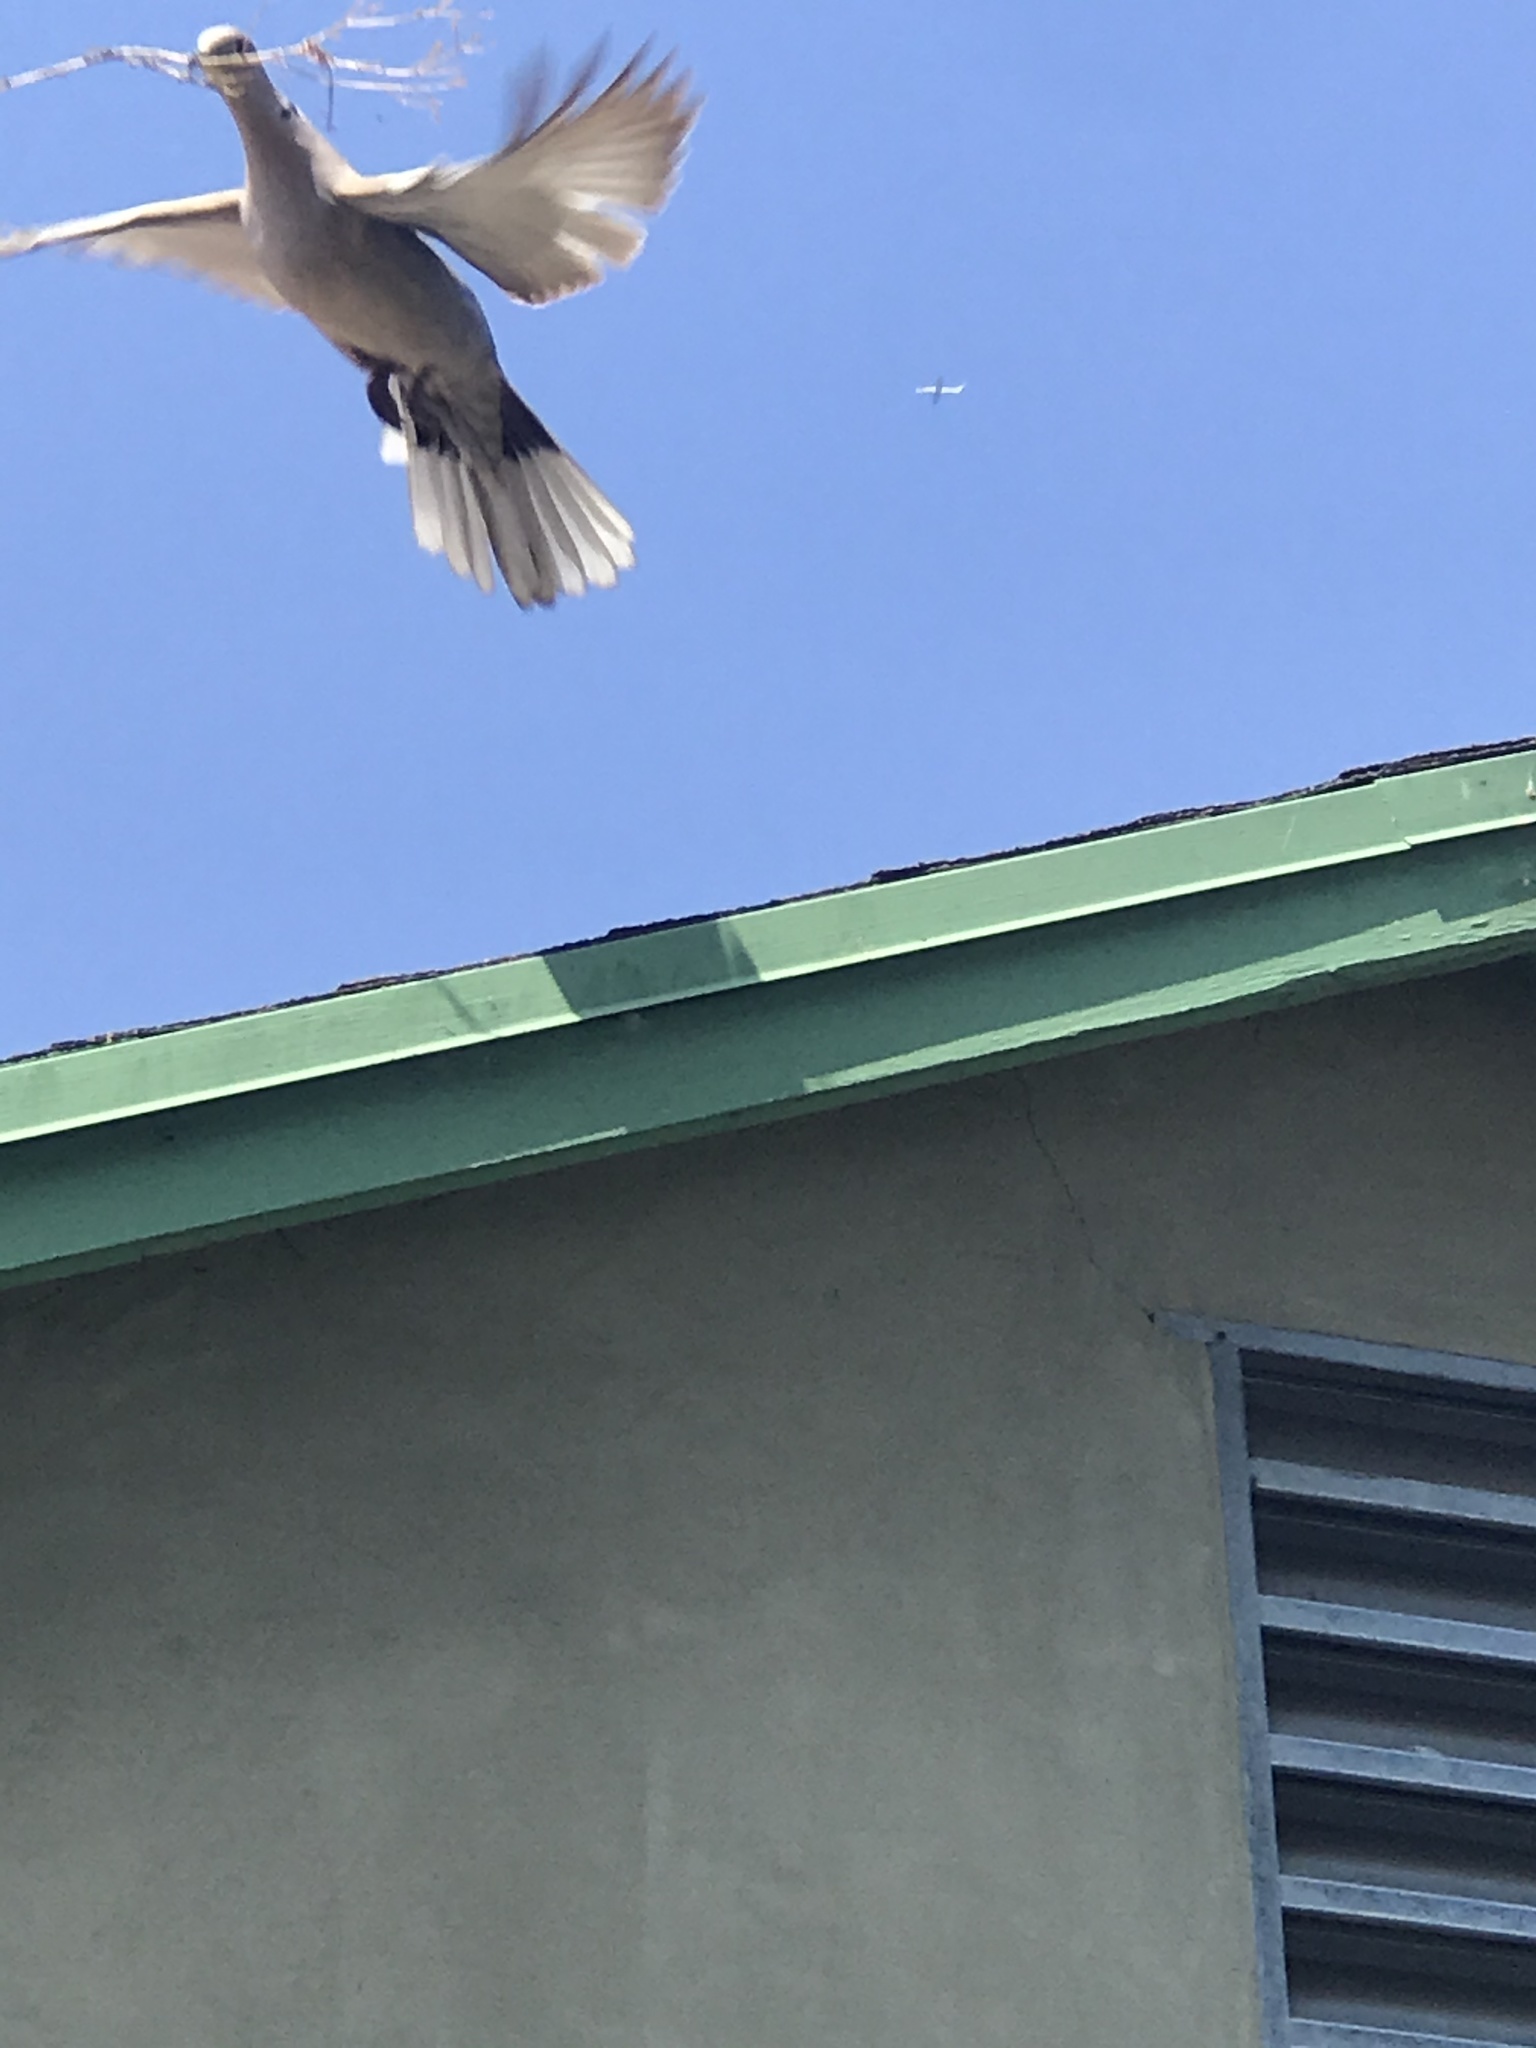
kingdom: Animalia
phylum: Chordata
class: Aves
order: Columbiformes
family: Columbidae
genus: Streptopelia
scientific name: Streptopelia decaocto
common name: Eurasian collared dove
